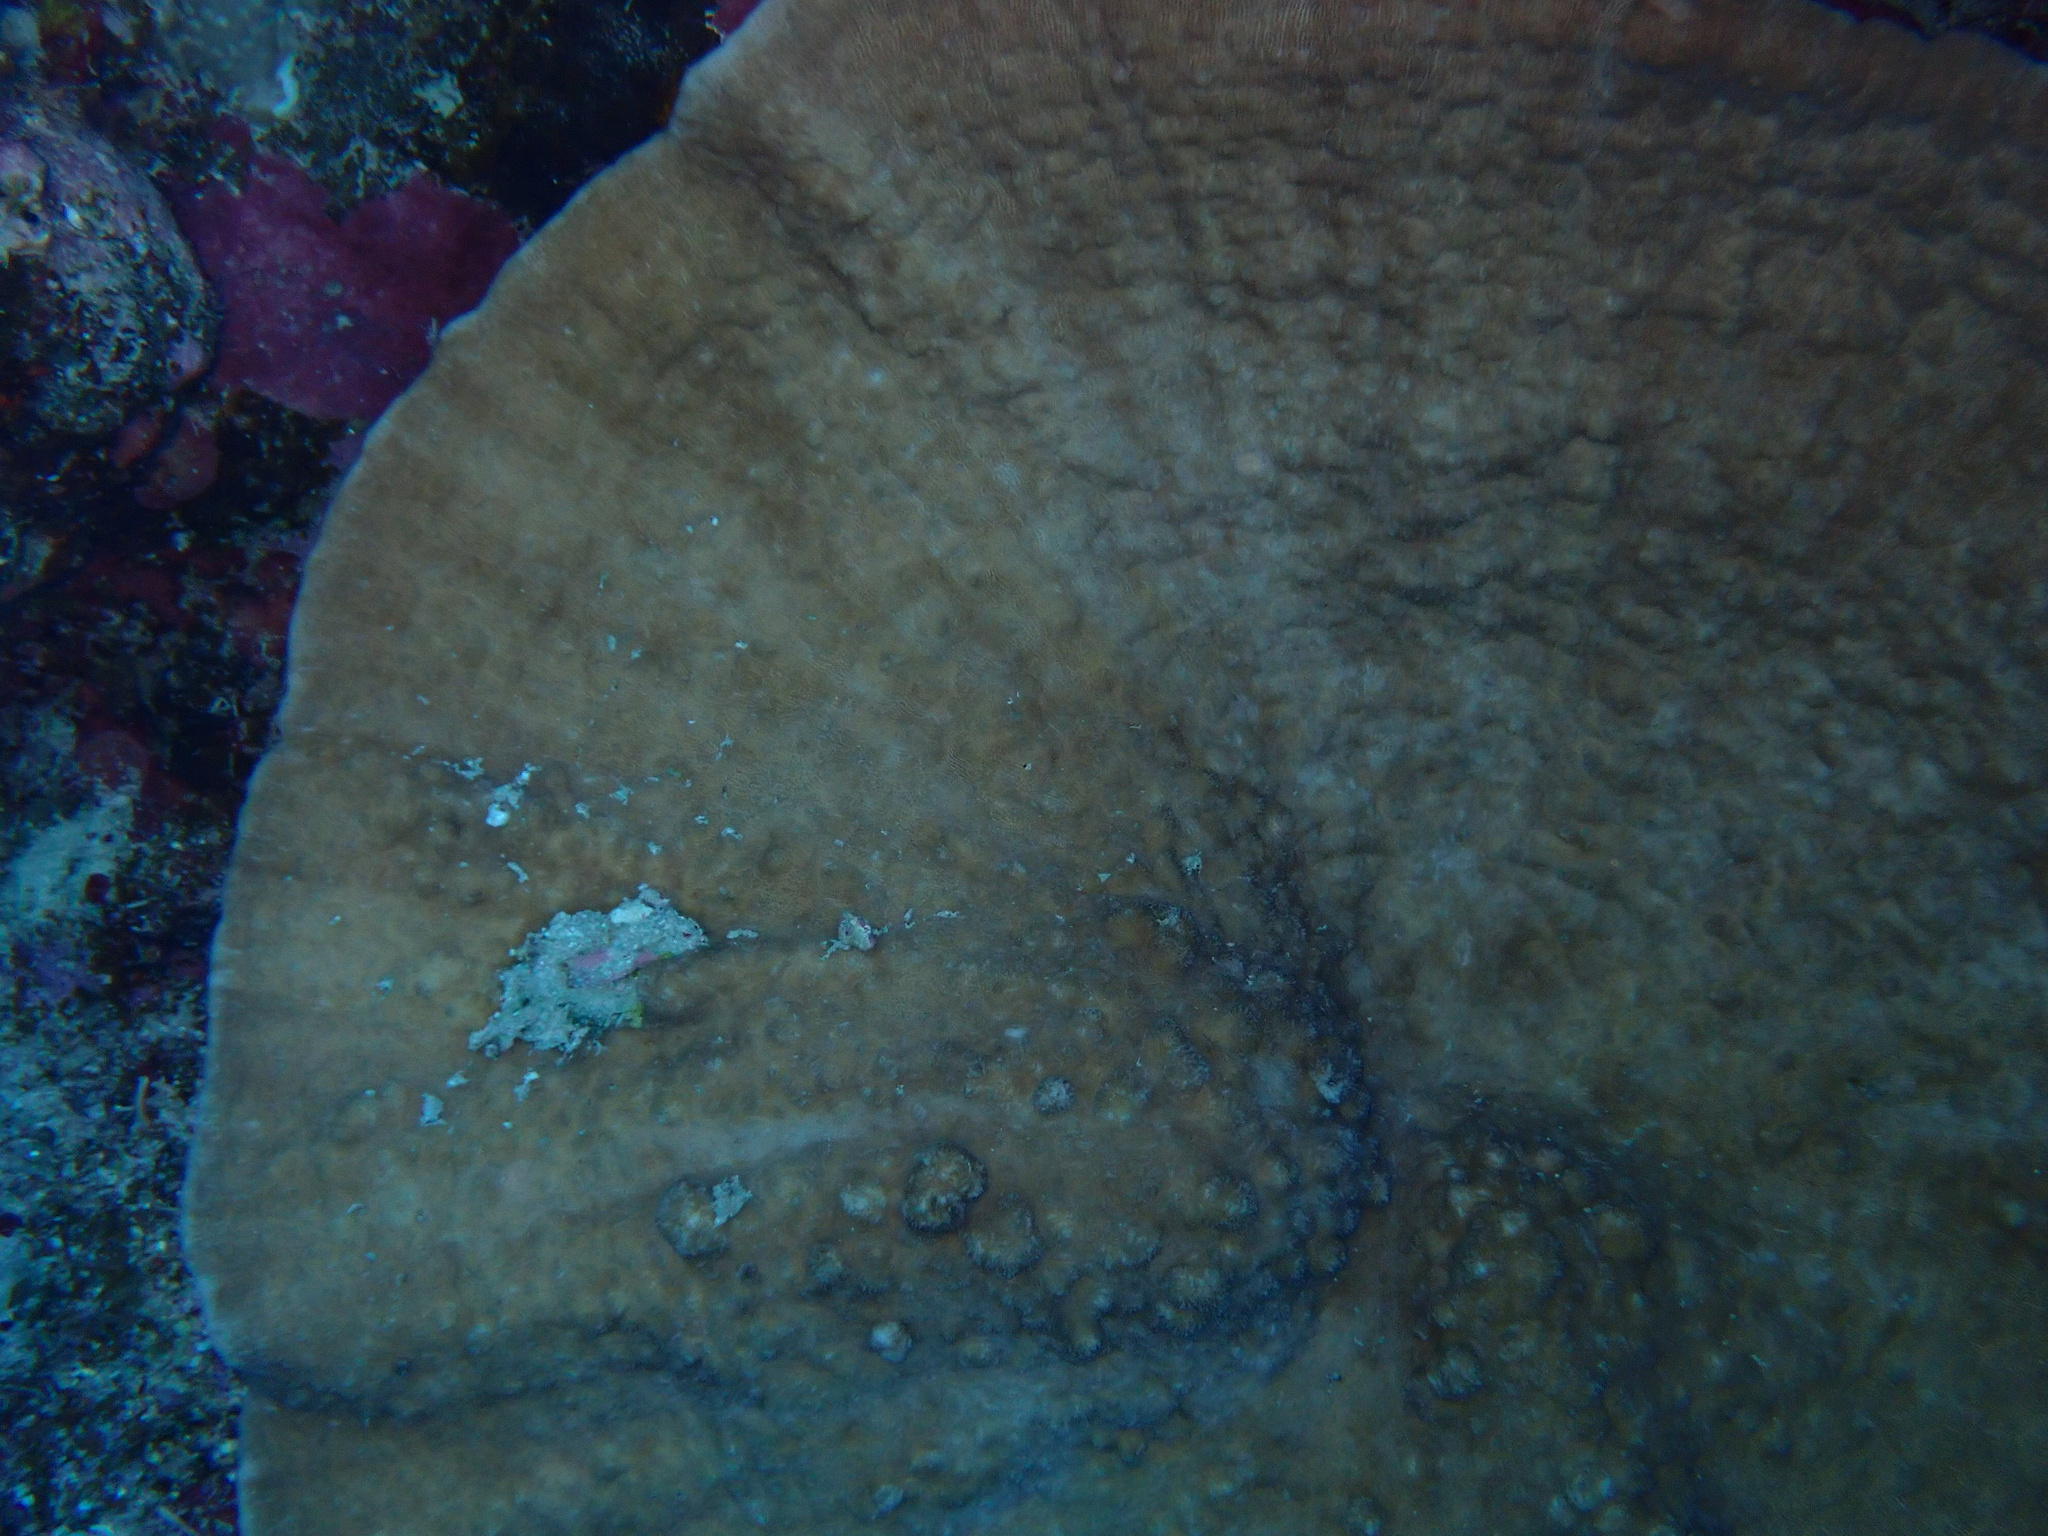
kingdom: Animalia
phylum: Cnidaria
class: Anthozoa
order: Scleractinia
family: Fungiidae
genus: Podabacia
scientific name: Podabacia sinai
